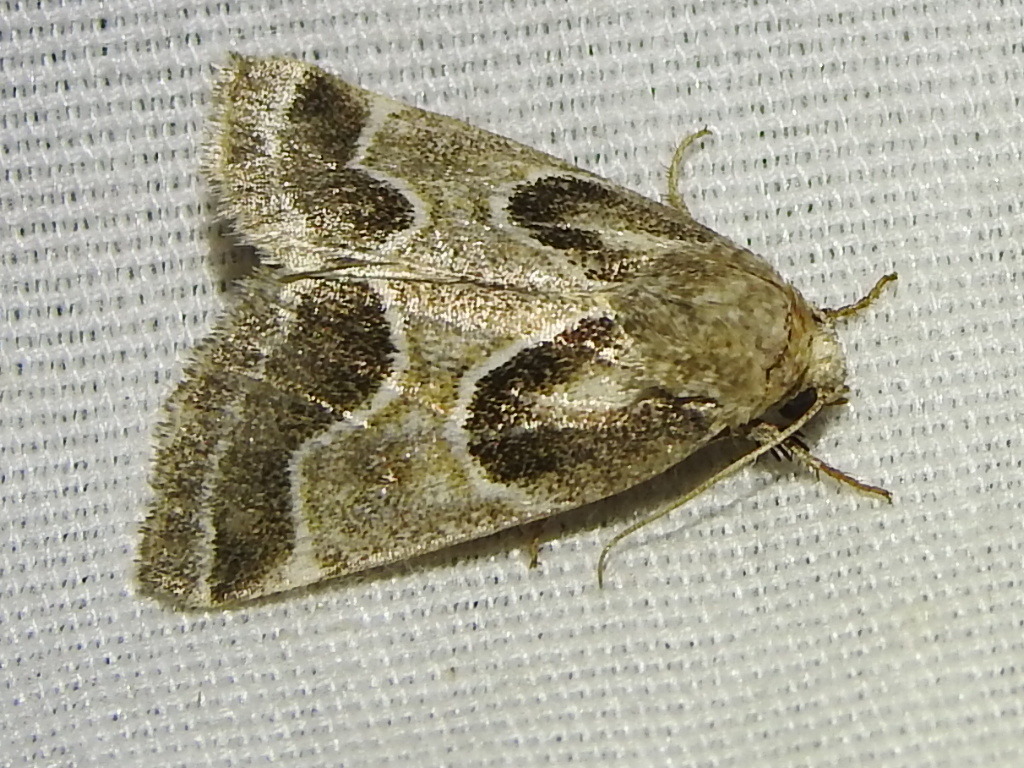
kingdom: Animalia
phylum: Arthropoda
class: Insecta
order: Lepidoptera
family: Noctuidae
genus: Schinia
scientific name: Schinia rivulosa
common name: Scarce meal-moth
